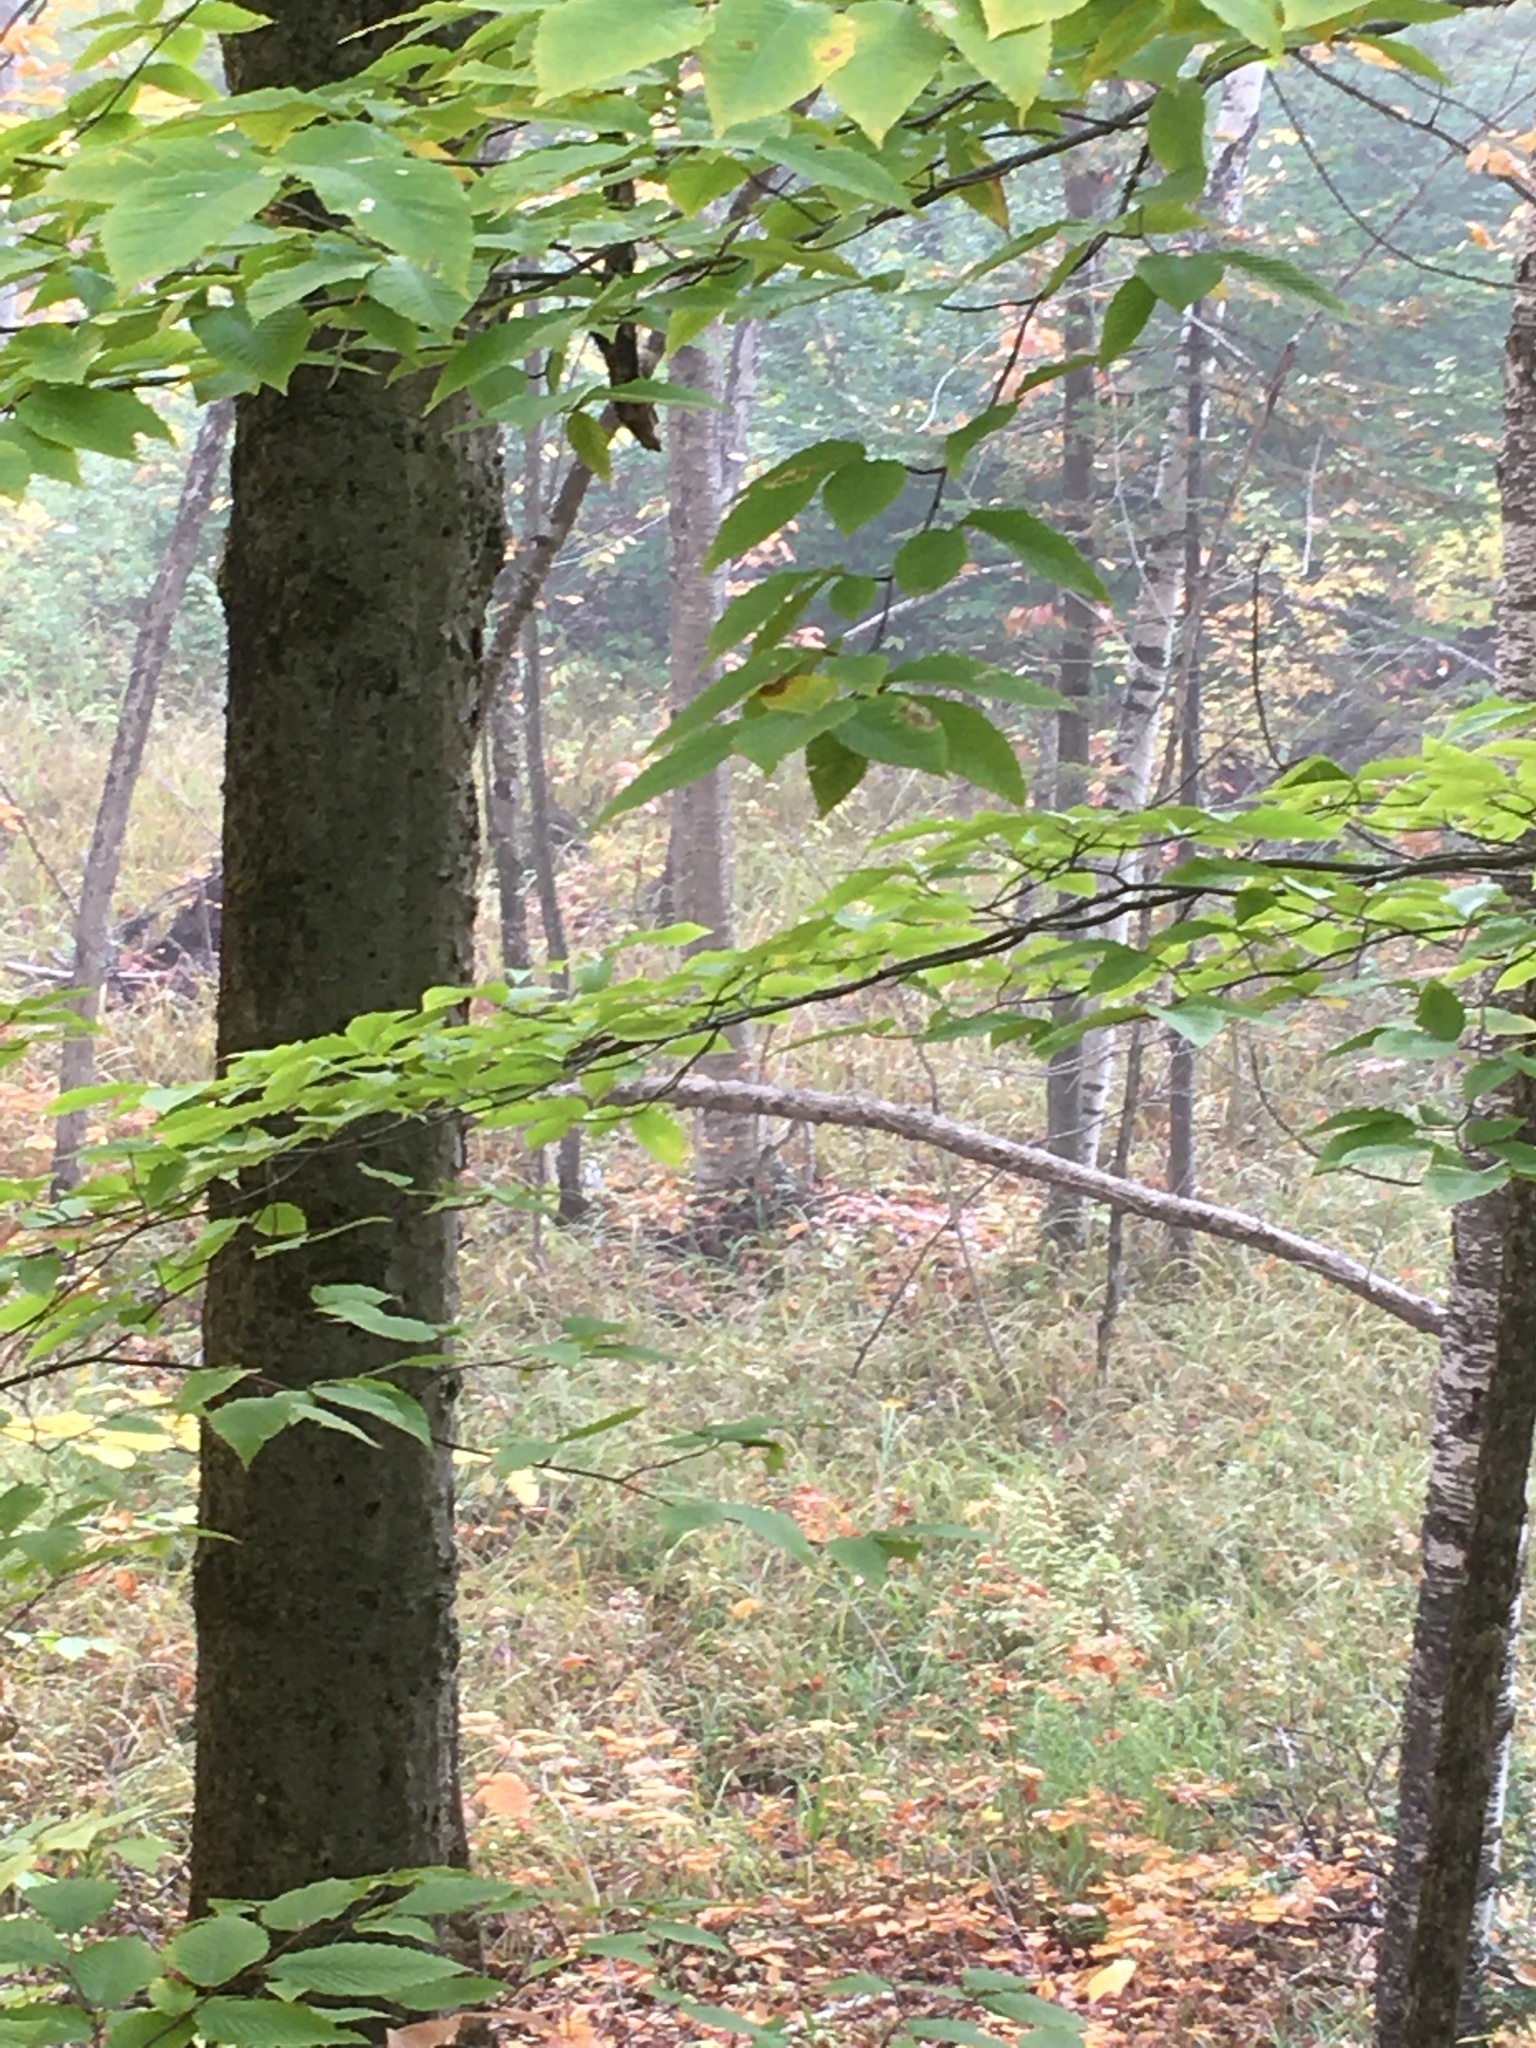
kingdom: Plantae
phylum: Tracheophyta
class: Magnoliopsida
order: Fagales
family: Fagaceae
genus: Fagus
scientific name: Fagus grandifolia
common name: American beech
